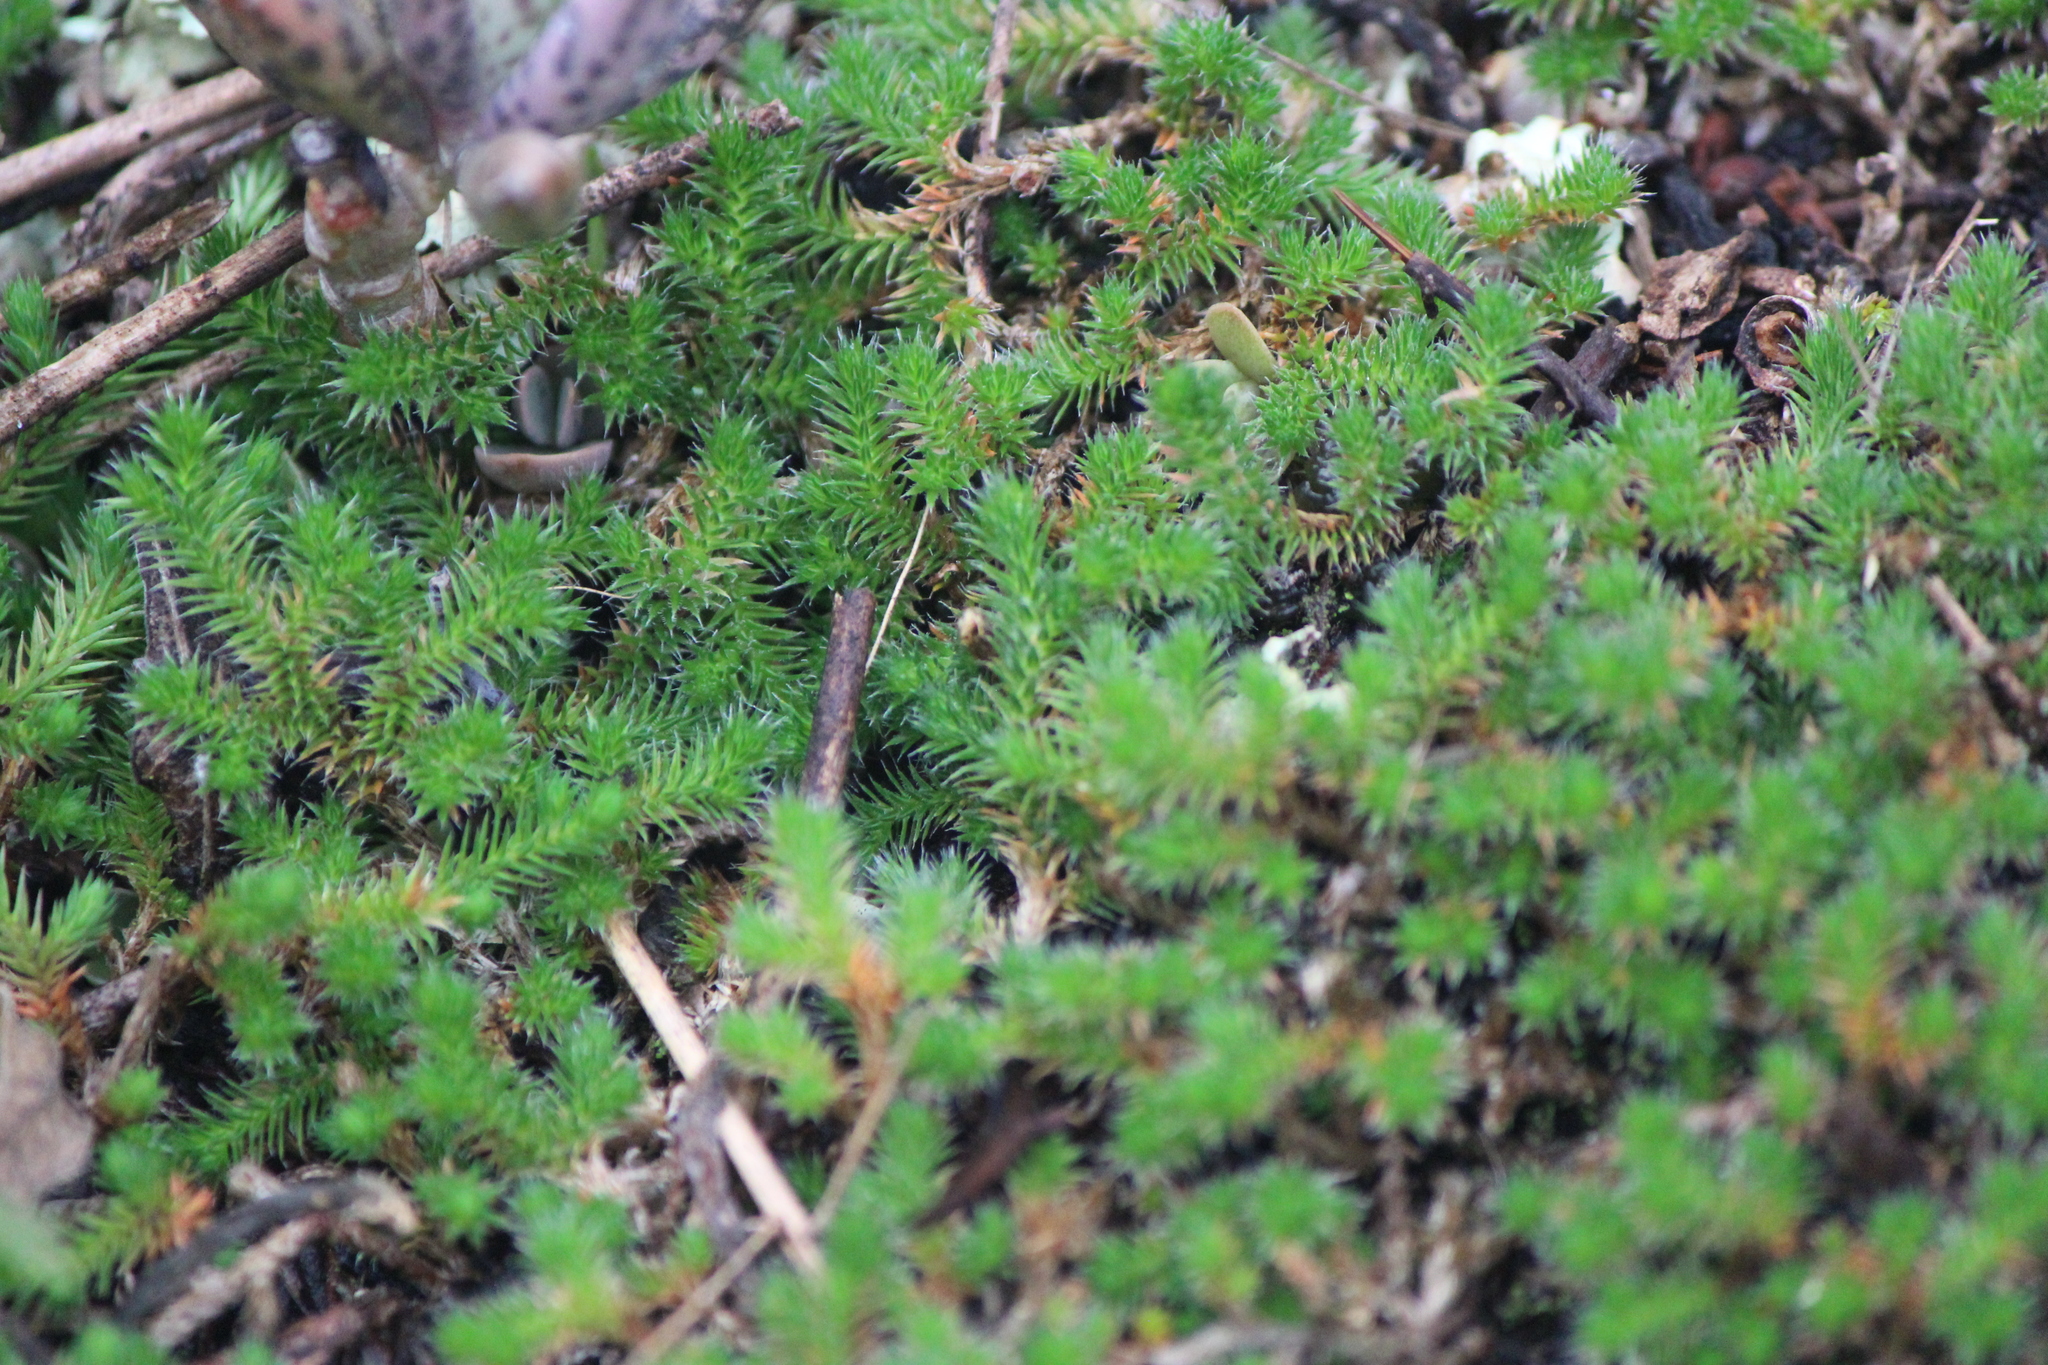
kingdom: Plantae
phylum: Tracheophyta
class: Lycopodiopsida
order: Selaginellales
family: Selaginellaceae
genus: Selaginella
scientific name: Selaginella rupincola
